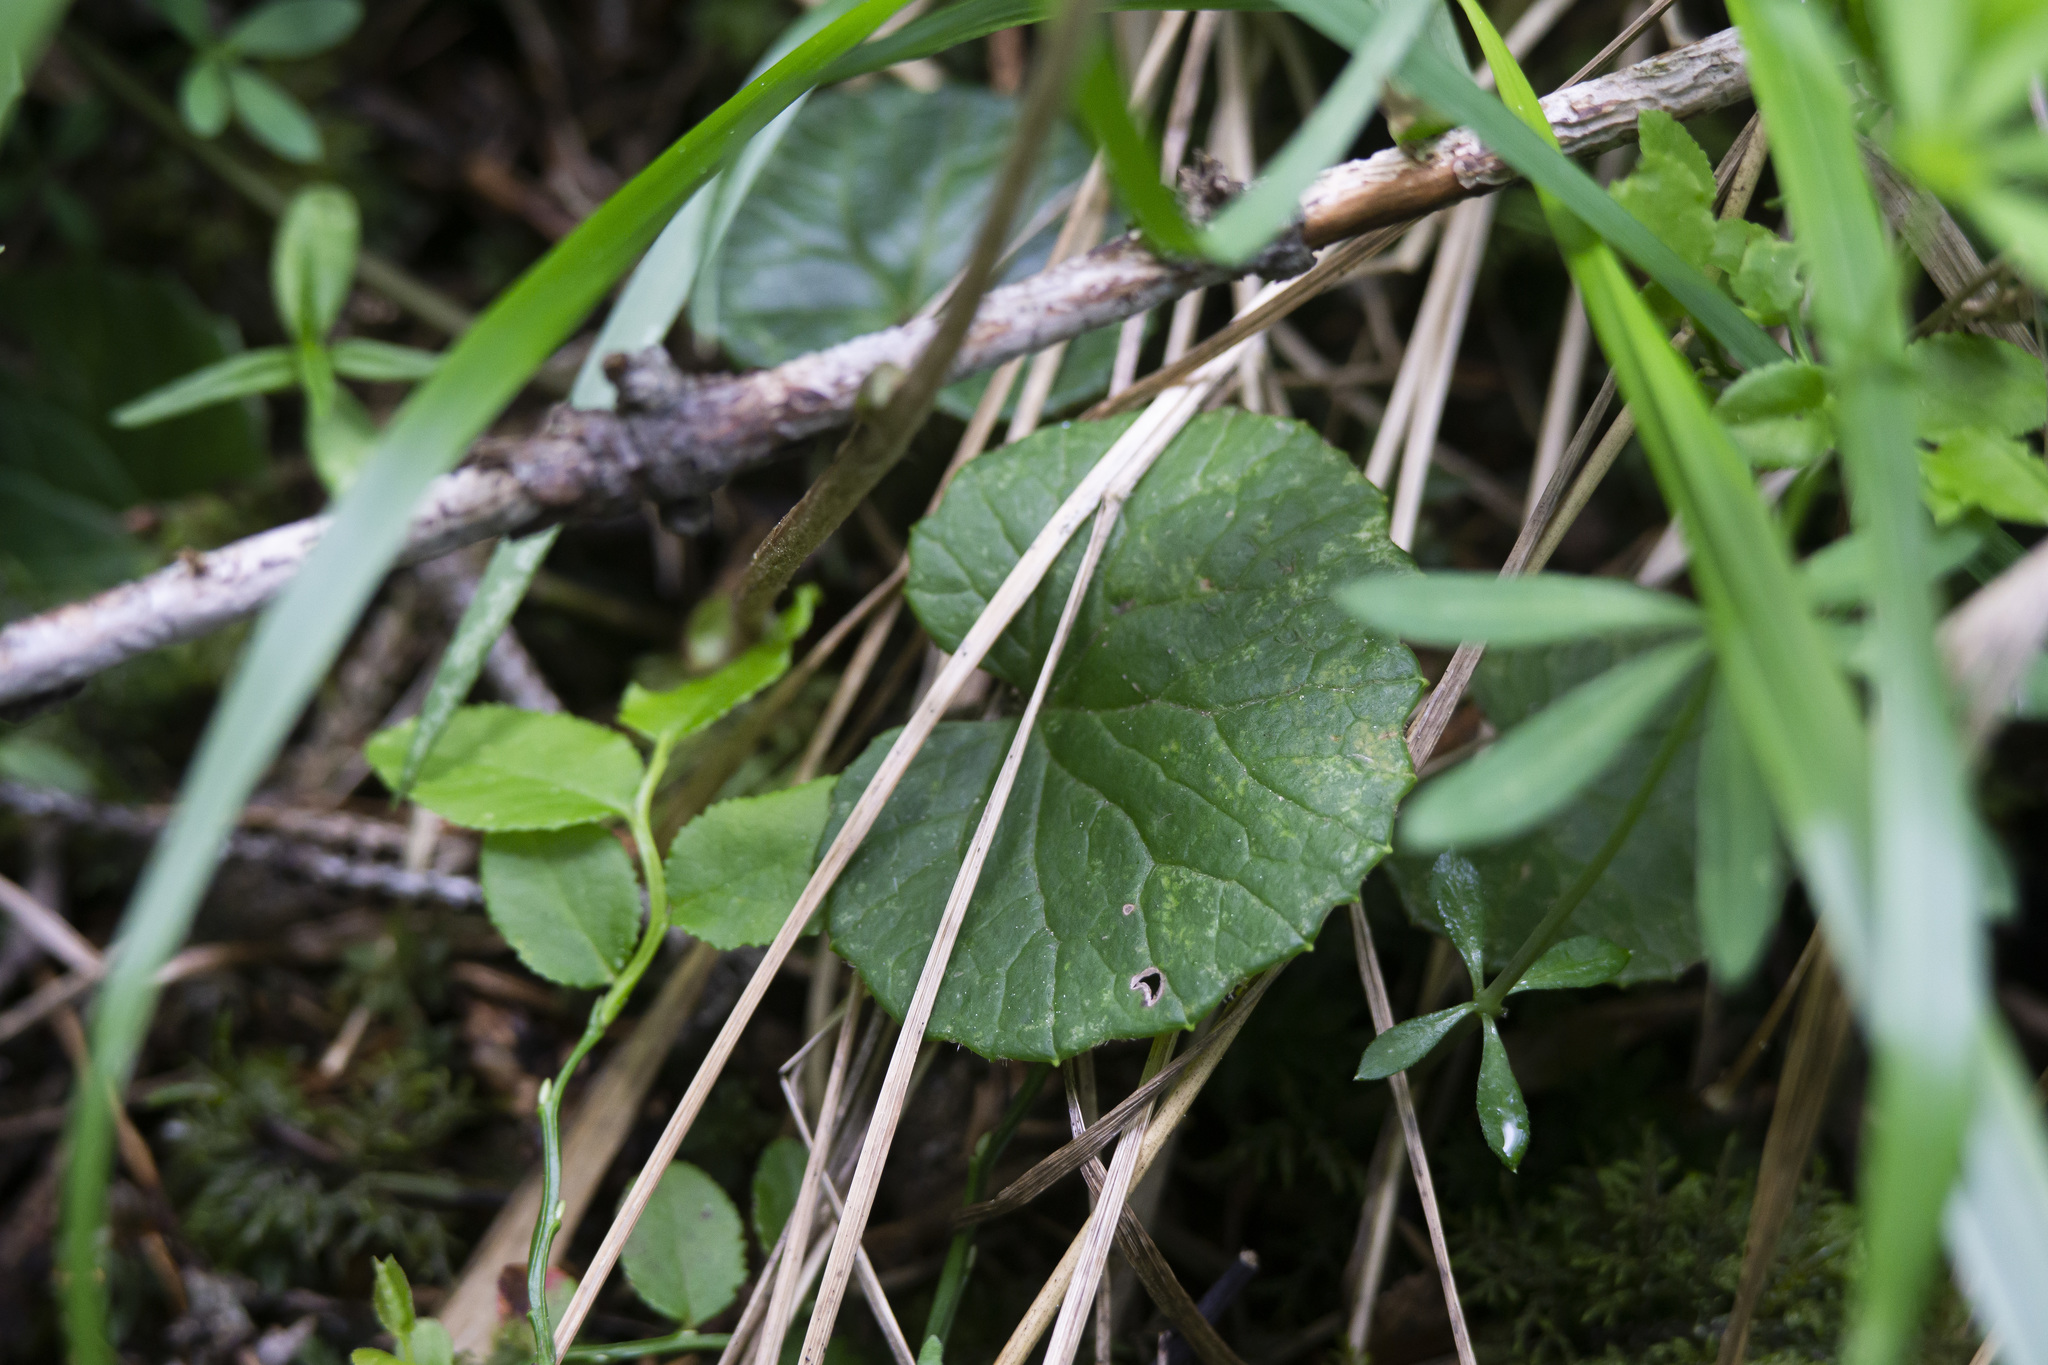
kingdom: Plantae
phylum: Tracheophyta
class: Magnoliopsida
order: Asterales
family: Asteraceae
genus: Homogyne
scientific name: Homogyne alpina
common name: Purple colt's-foot
